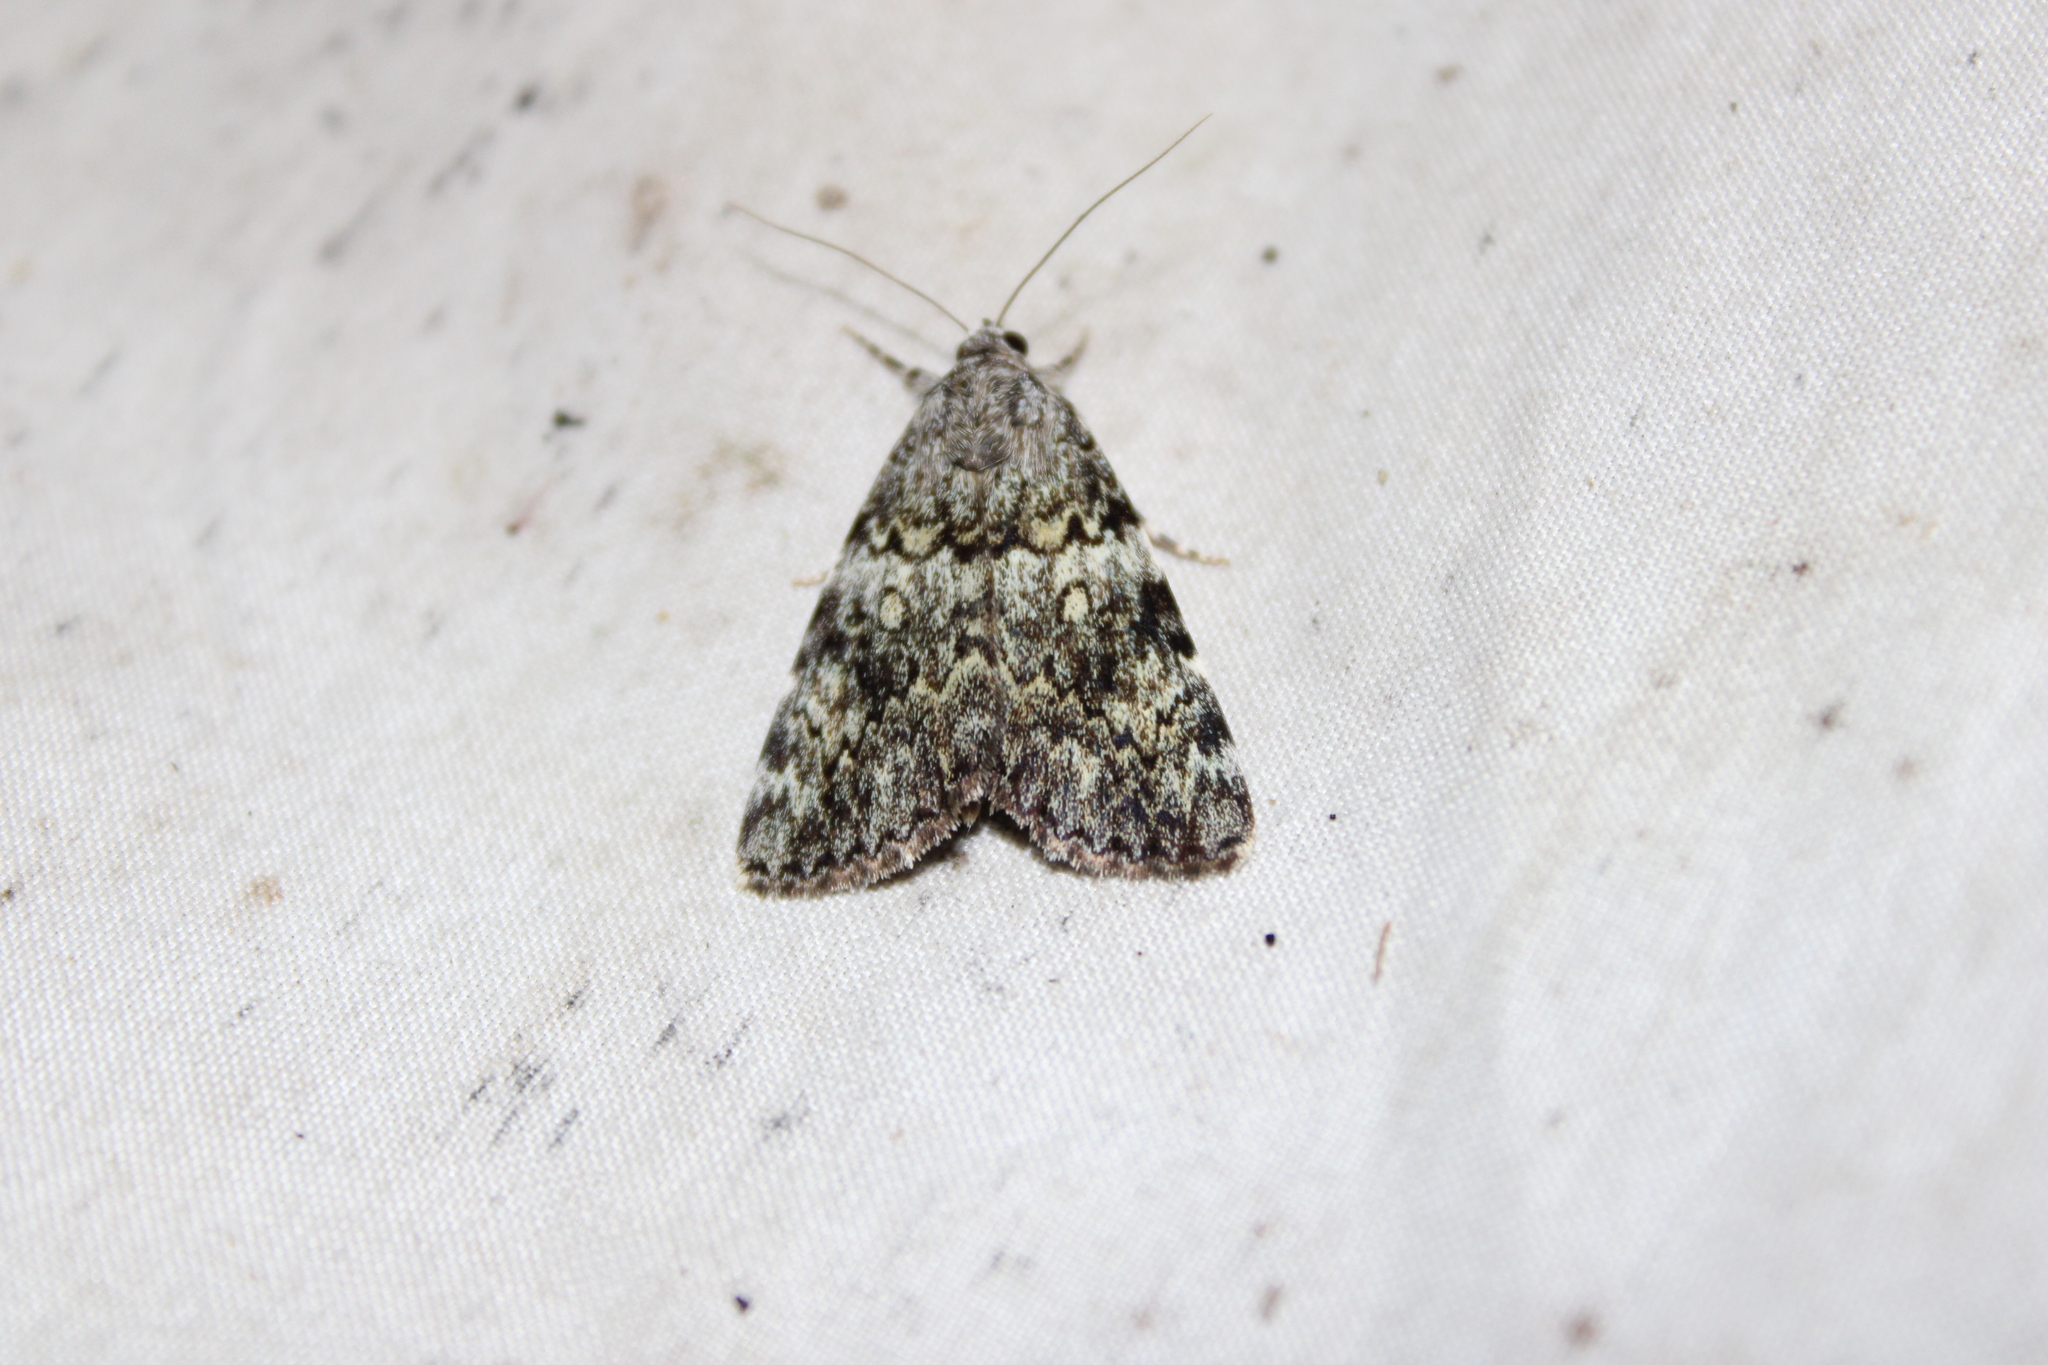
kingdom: Animalia
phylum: Arthropoda
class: Insecta
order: Lepidoptera
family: Erebidae
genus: Catocala
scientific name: Catocala lineella
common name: Little lined underwing
